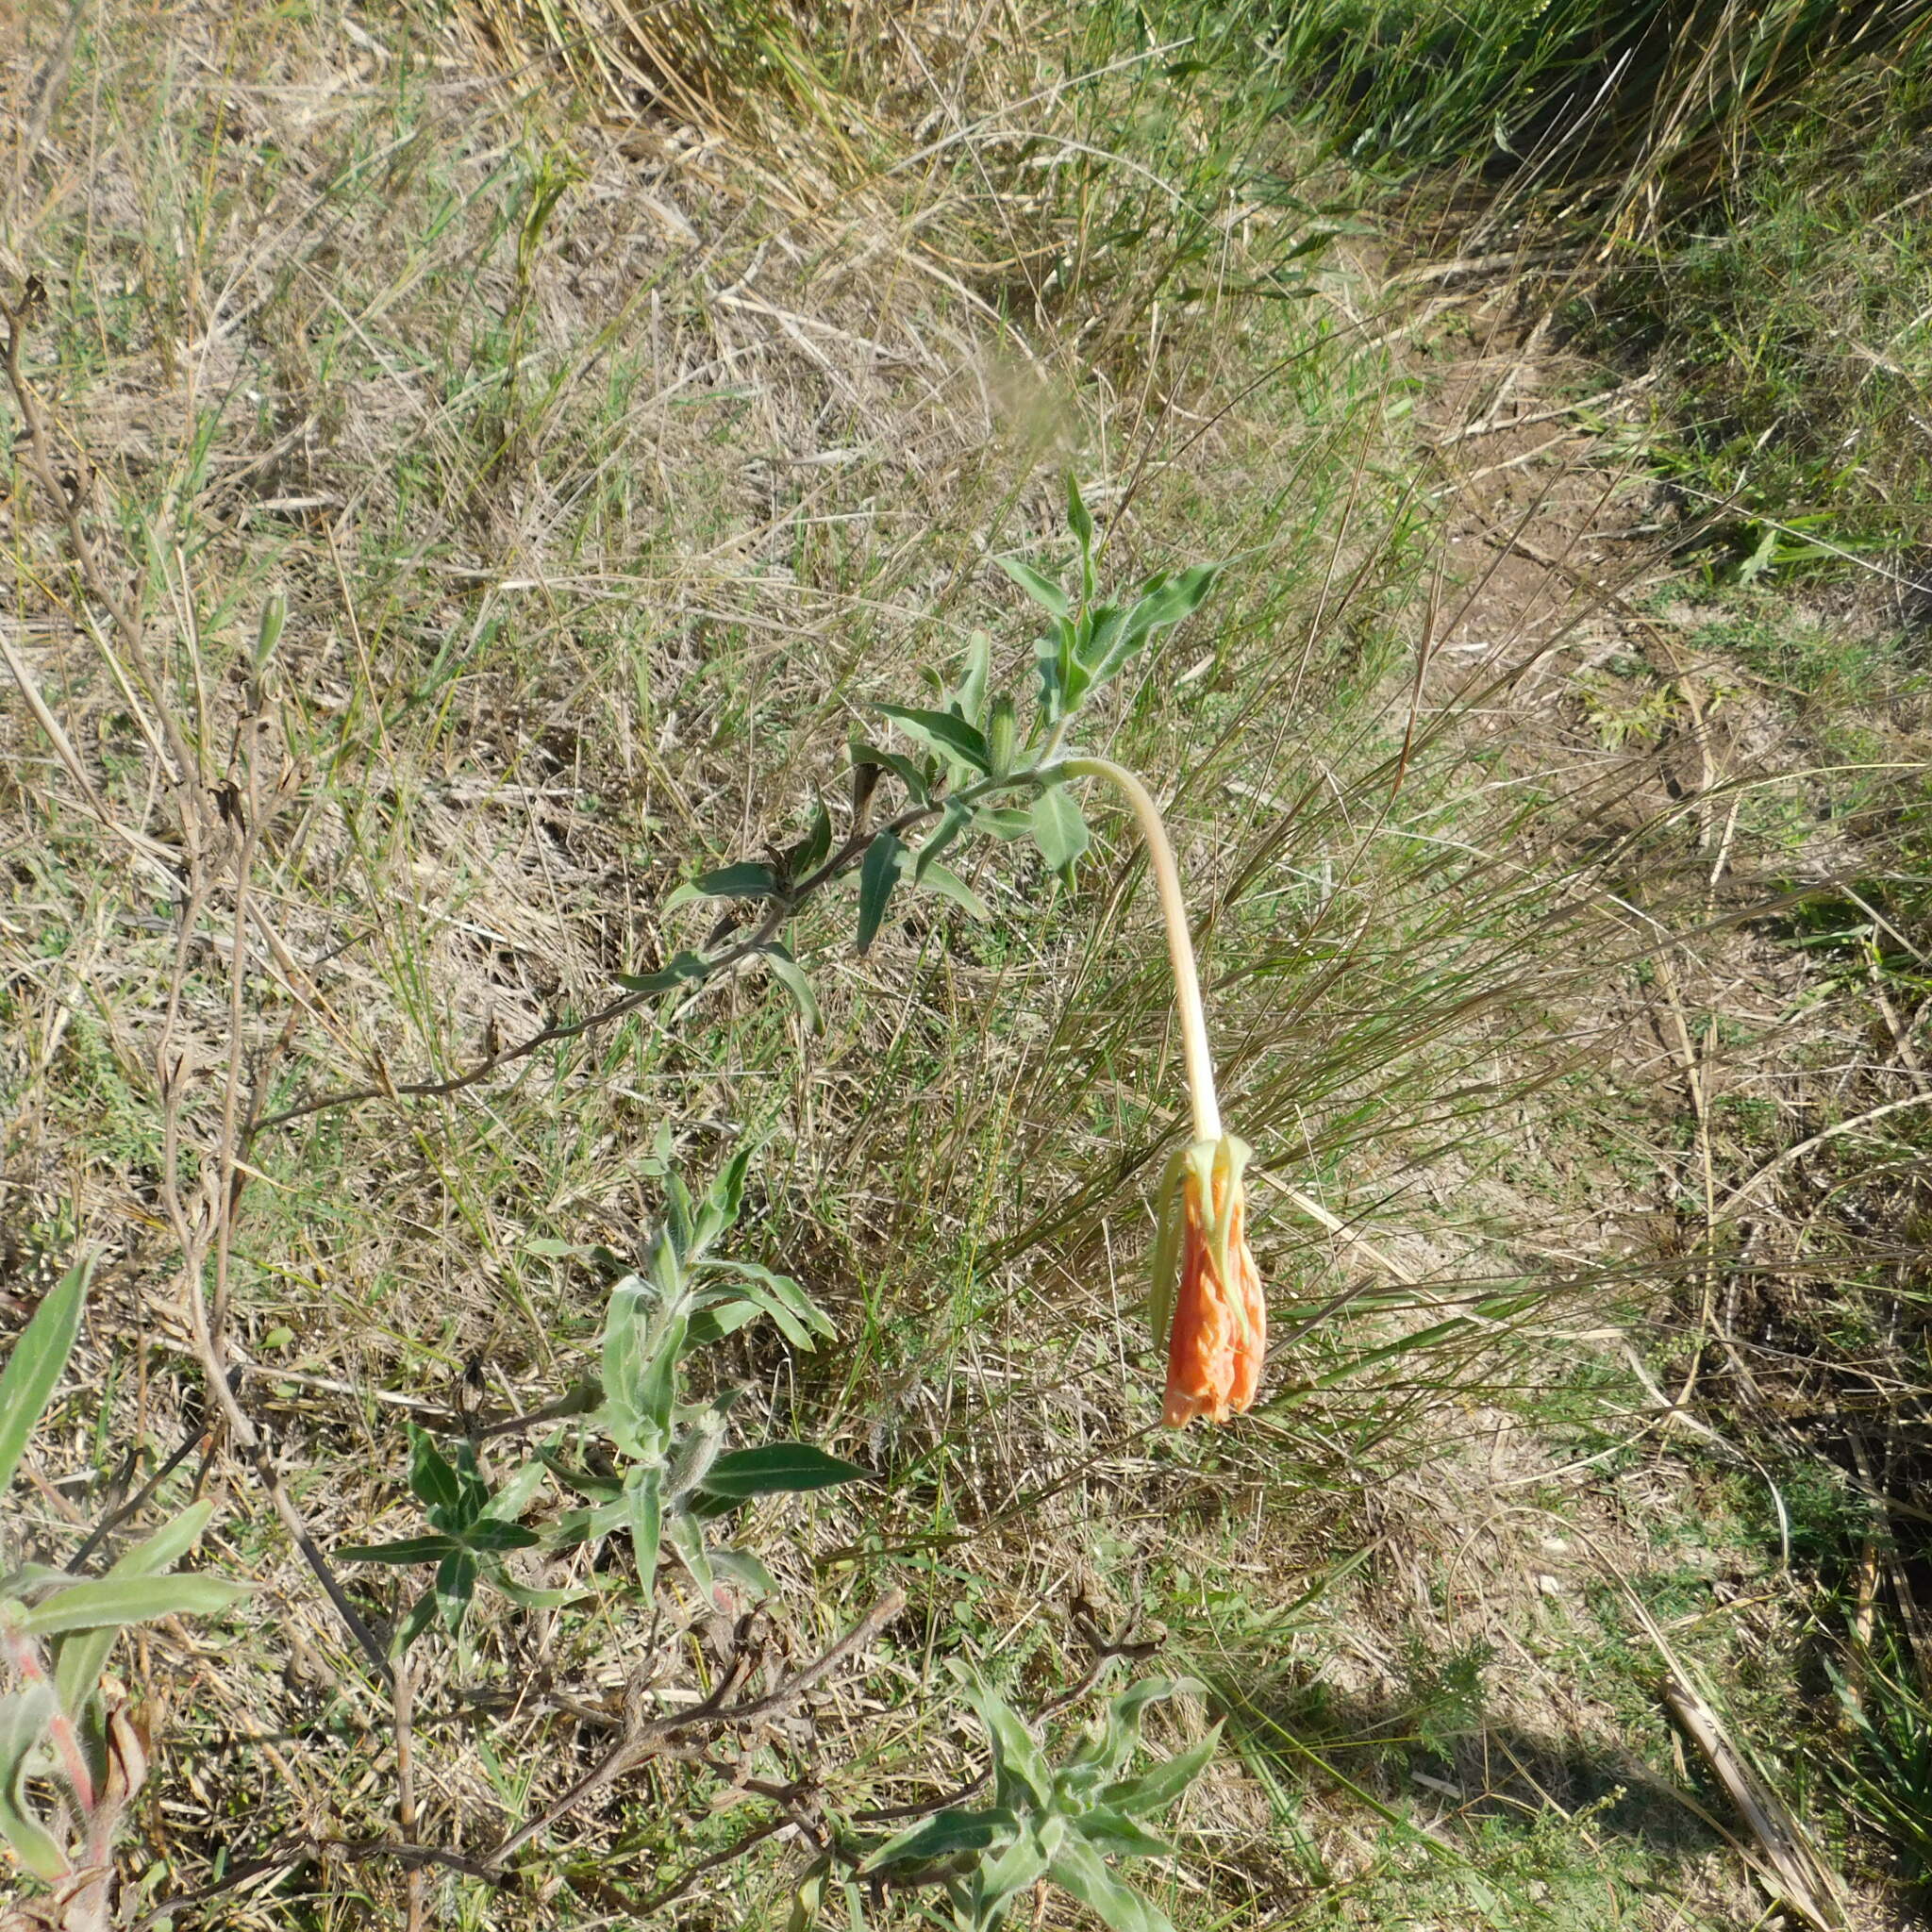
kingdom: Plantae
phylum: Tracheophyta
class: Magnoliopsida
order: Myrtales
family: Onagraceae
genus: Oenothera
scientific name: Oenothera affinis
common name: Longflower evening primrose
